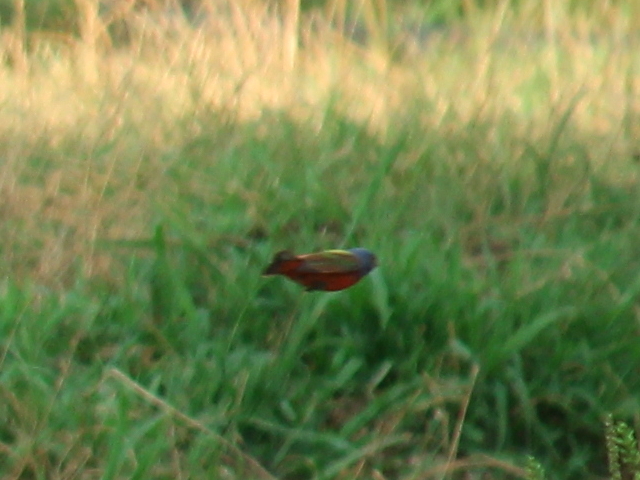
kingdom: Animalia
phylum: Chordata
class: Aves
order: Passeriformes
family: Cardinalidae
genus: Passerina
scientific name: Passerina ciris
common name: Painted bunting
